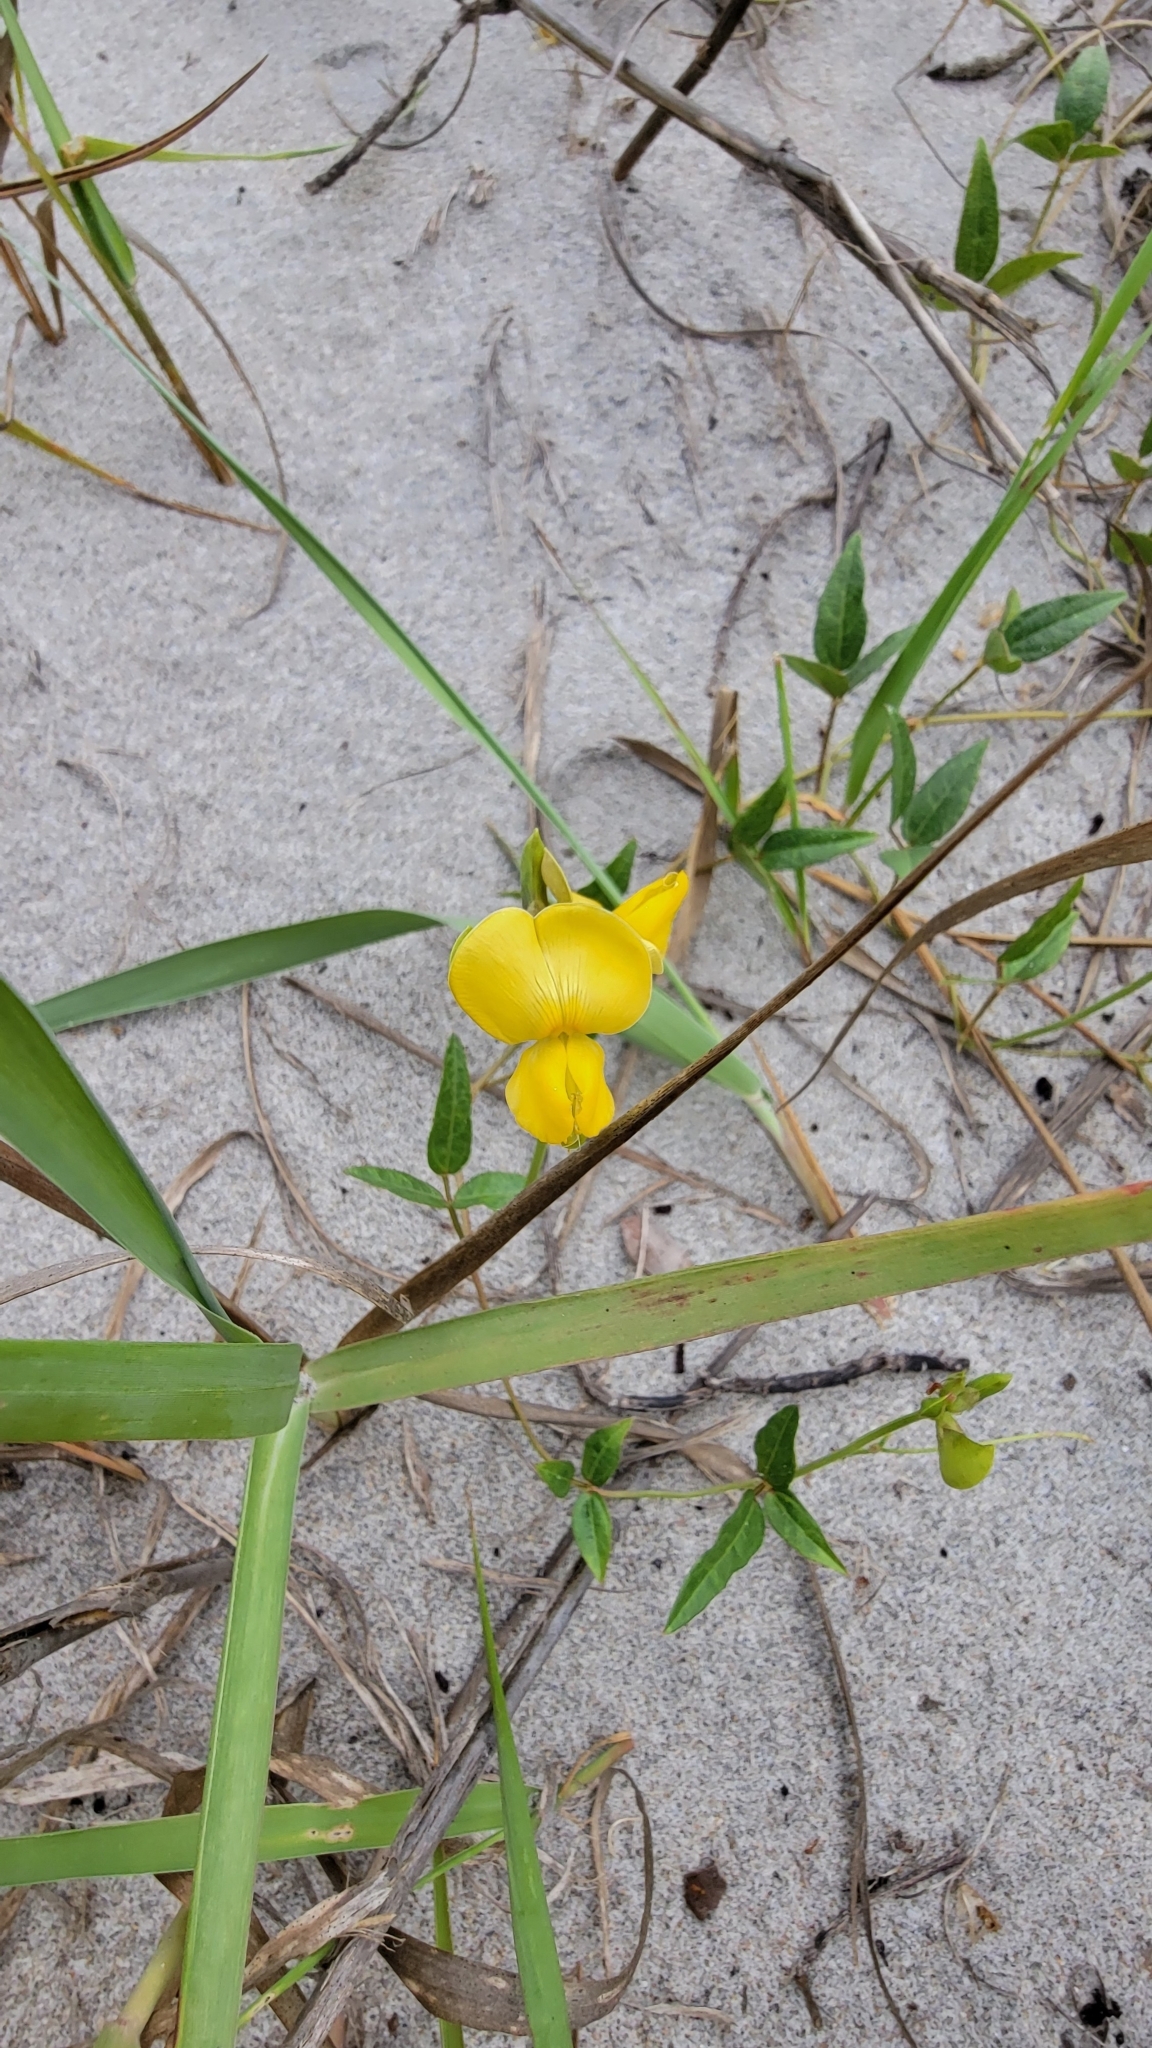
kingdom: Plantae
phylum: Tracheophyta
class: Magnoliopsida
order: Fabales
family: Fabaceae
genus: Vigna
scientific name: Vigna luteola
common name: Hairypod cowpea
